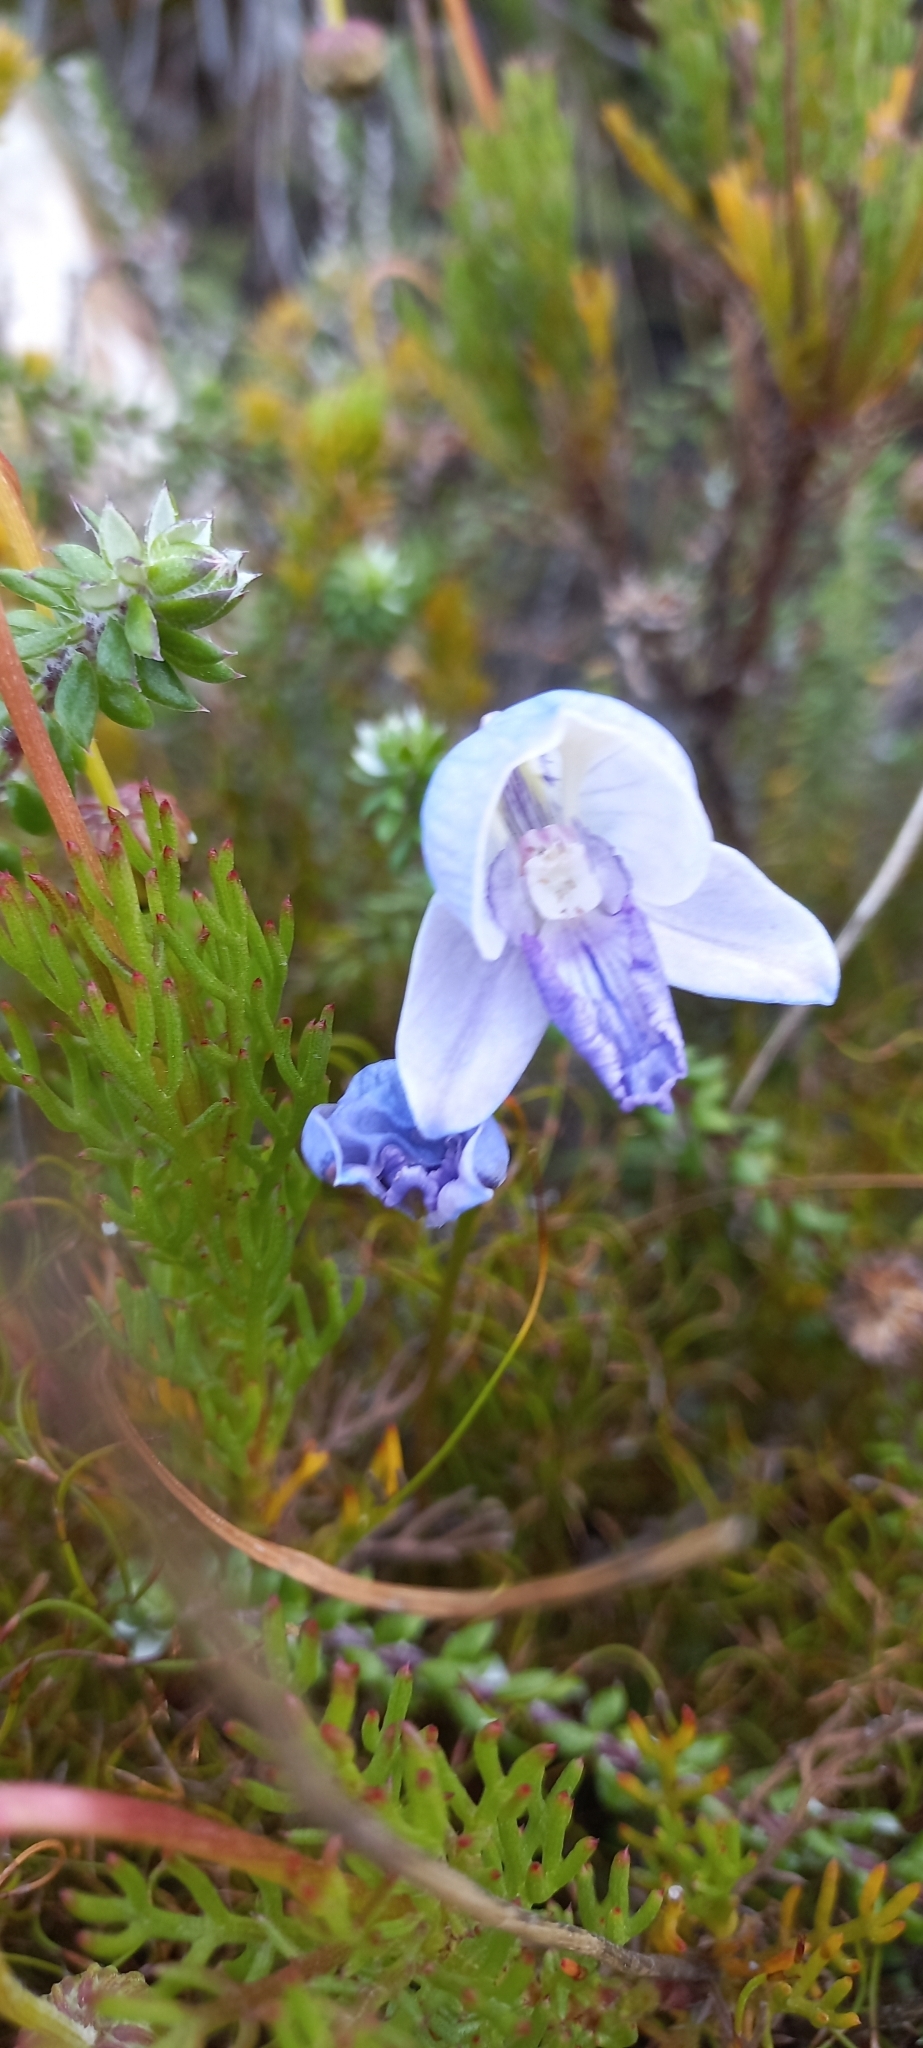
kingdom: Plantae
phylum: Tracheophyta
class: Liliopsida
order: Asparagales
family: Orchidaceae
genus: Disa
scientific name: Disa purpurascens
